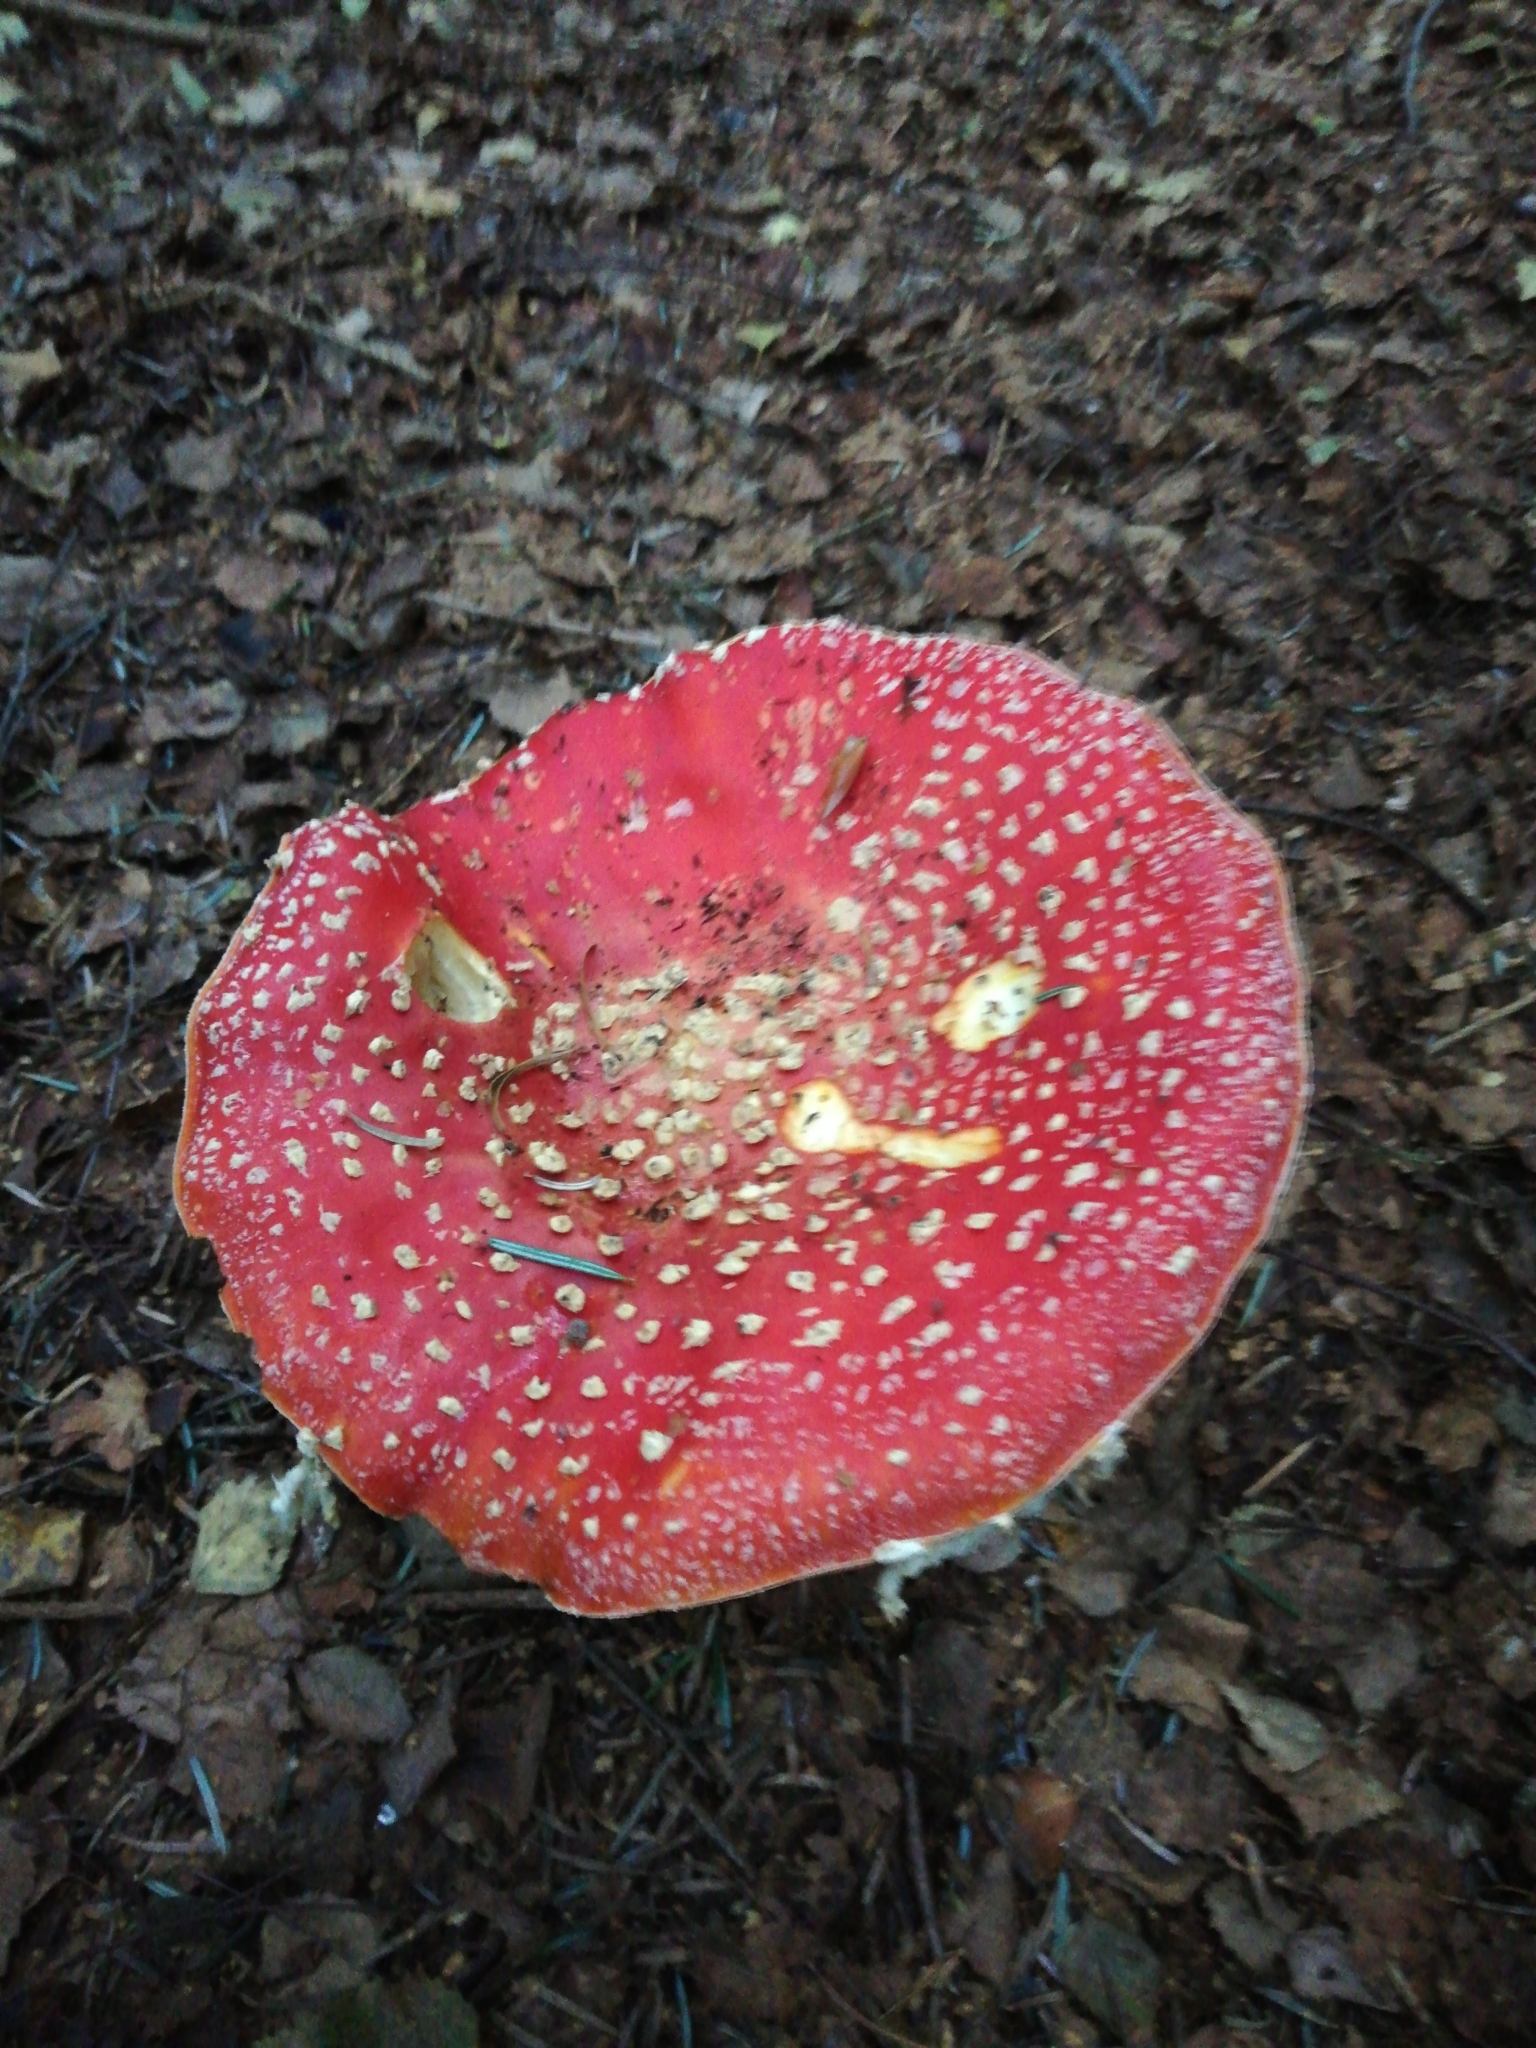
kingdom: Fungi
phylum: Basidiomycota
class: Agaricomycetes
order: Agaricales
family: Amanitaceae
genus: Amanita
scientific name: Amanita muscaria
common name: Fly agaric
